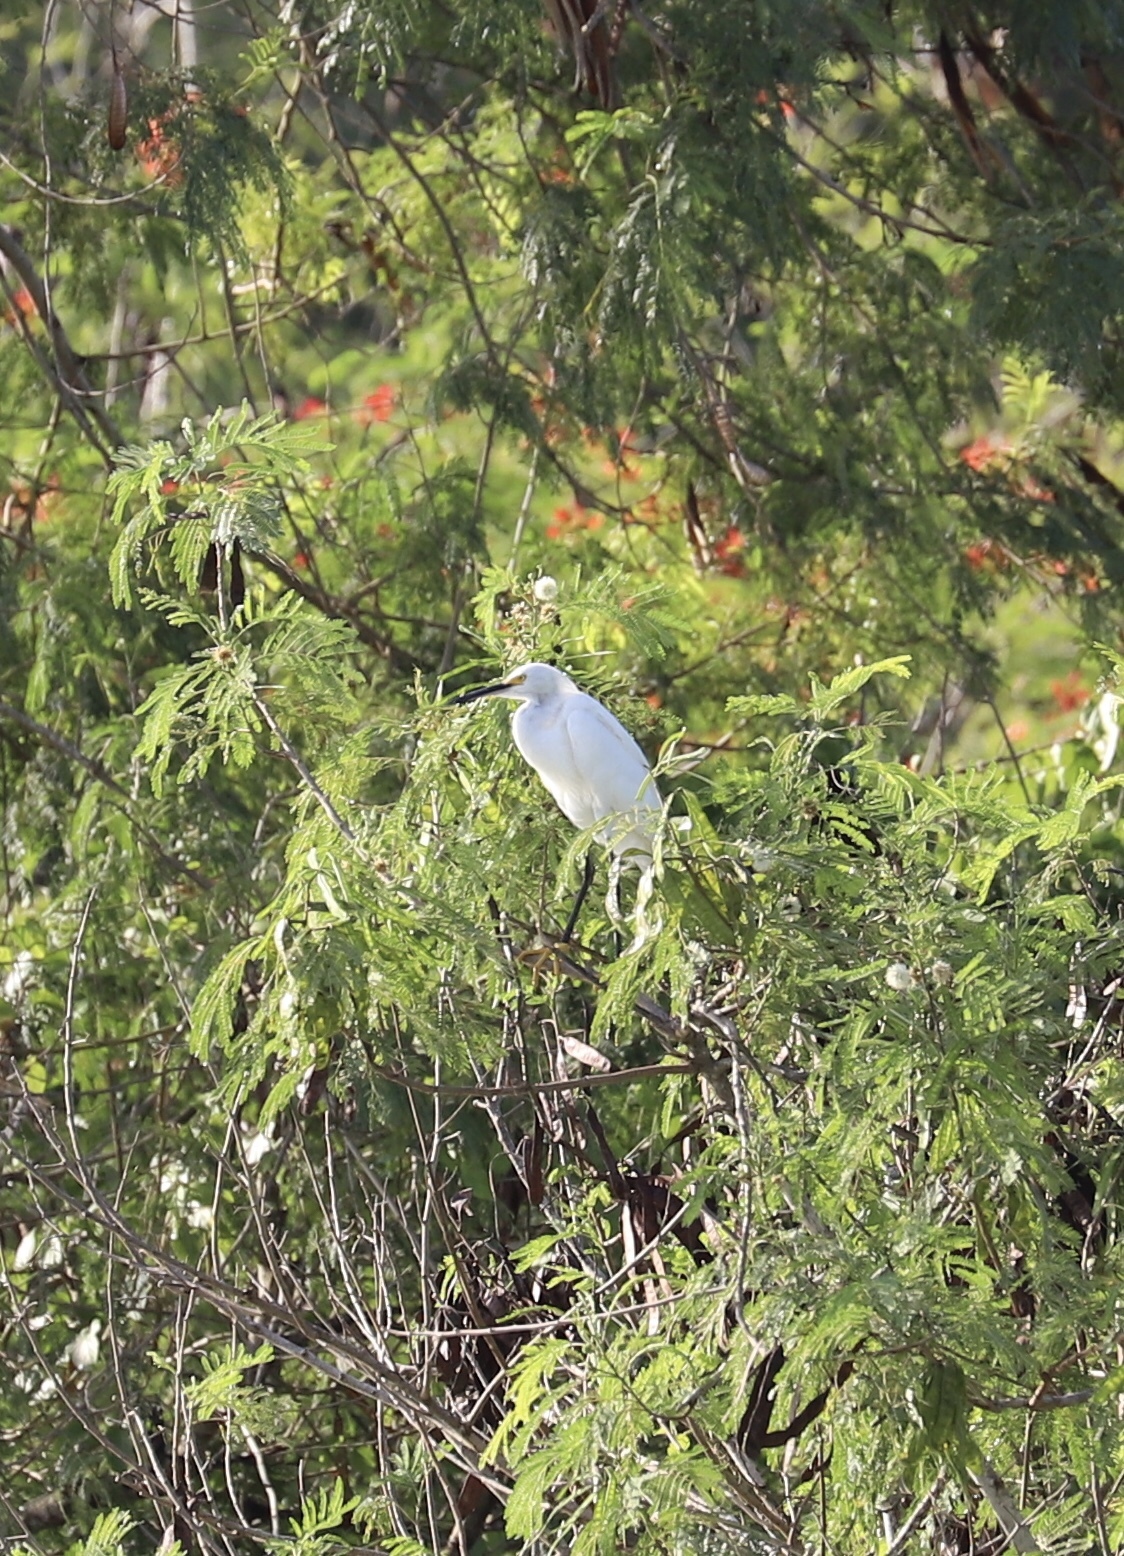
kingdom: Animalia
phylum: Chordata
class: Aves
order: Pelecaniformes
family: Ardeidae
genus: Egretta
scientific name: Egretta thula
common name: Snowy egret
